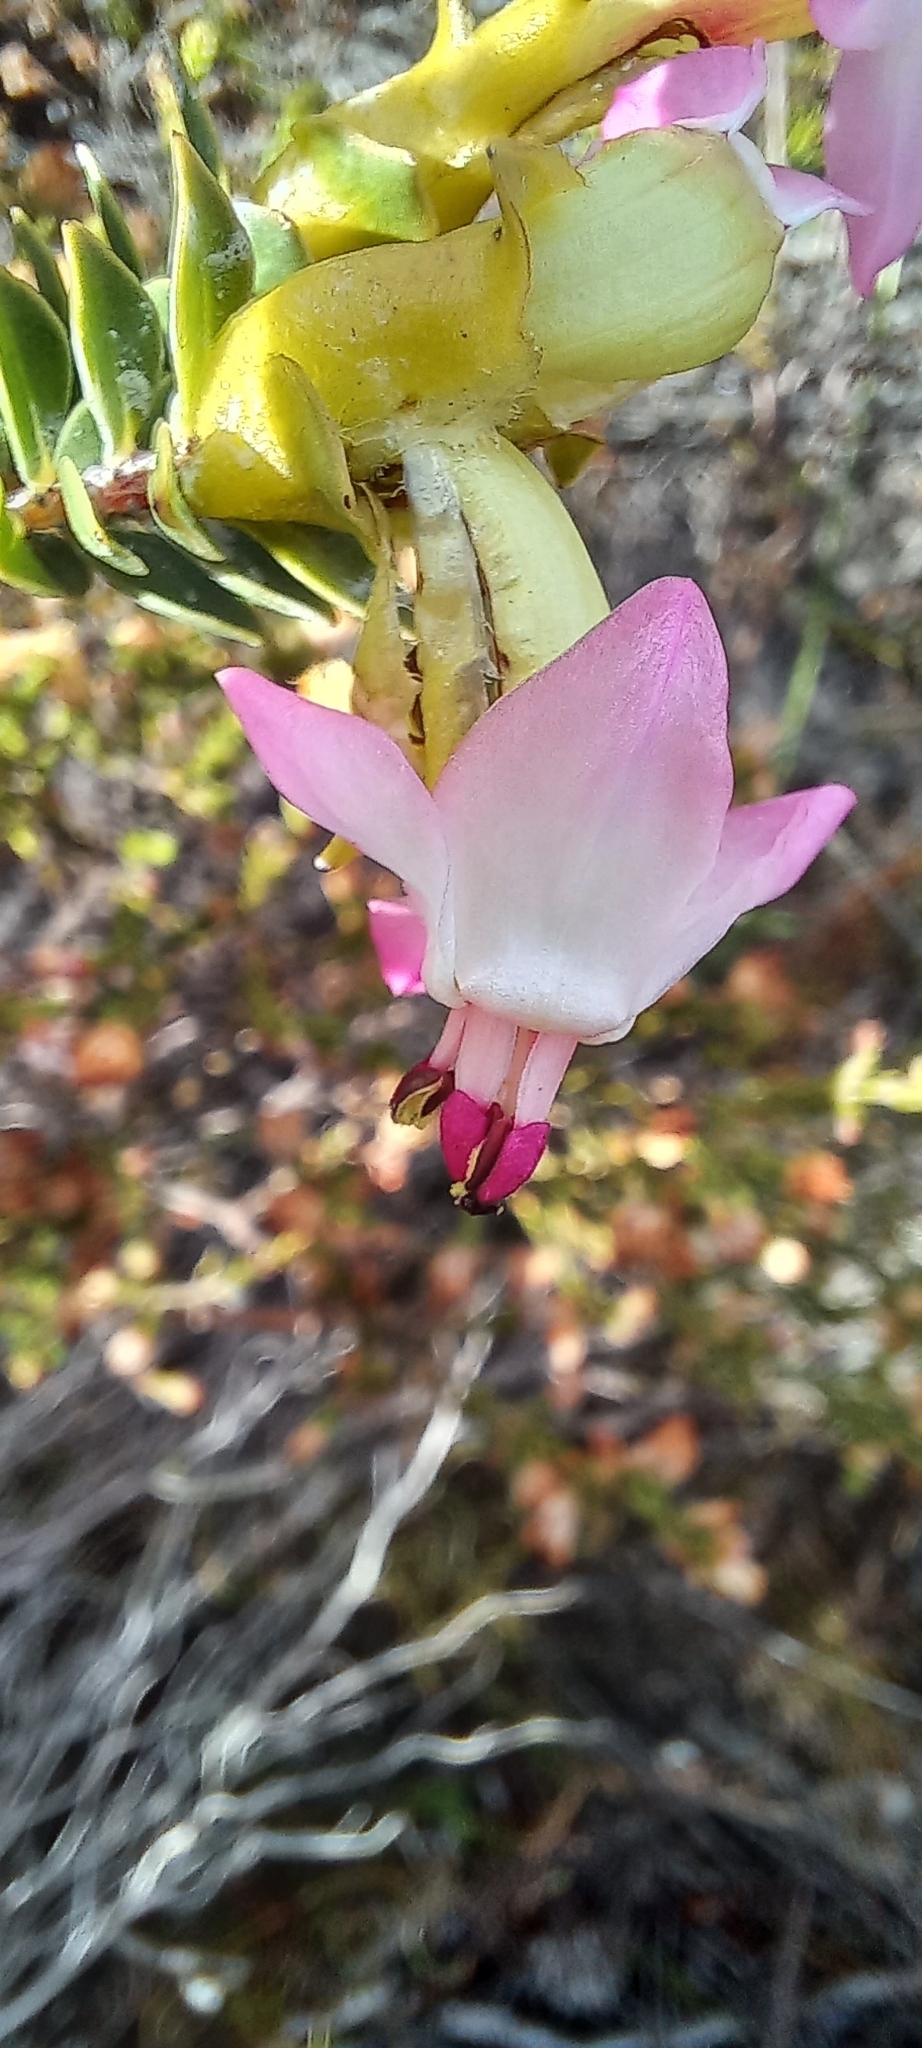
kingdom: Plantae
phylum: Tracheophyta
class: Magnoliopsida
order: Myrtales
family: Penaeaceae
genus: Saltera
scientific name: Saltera sarcocolla
